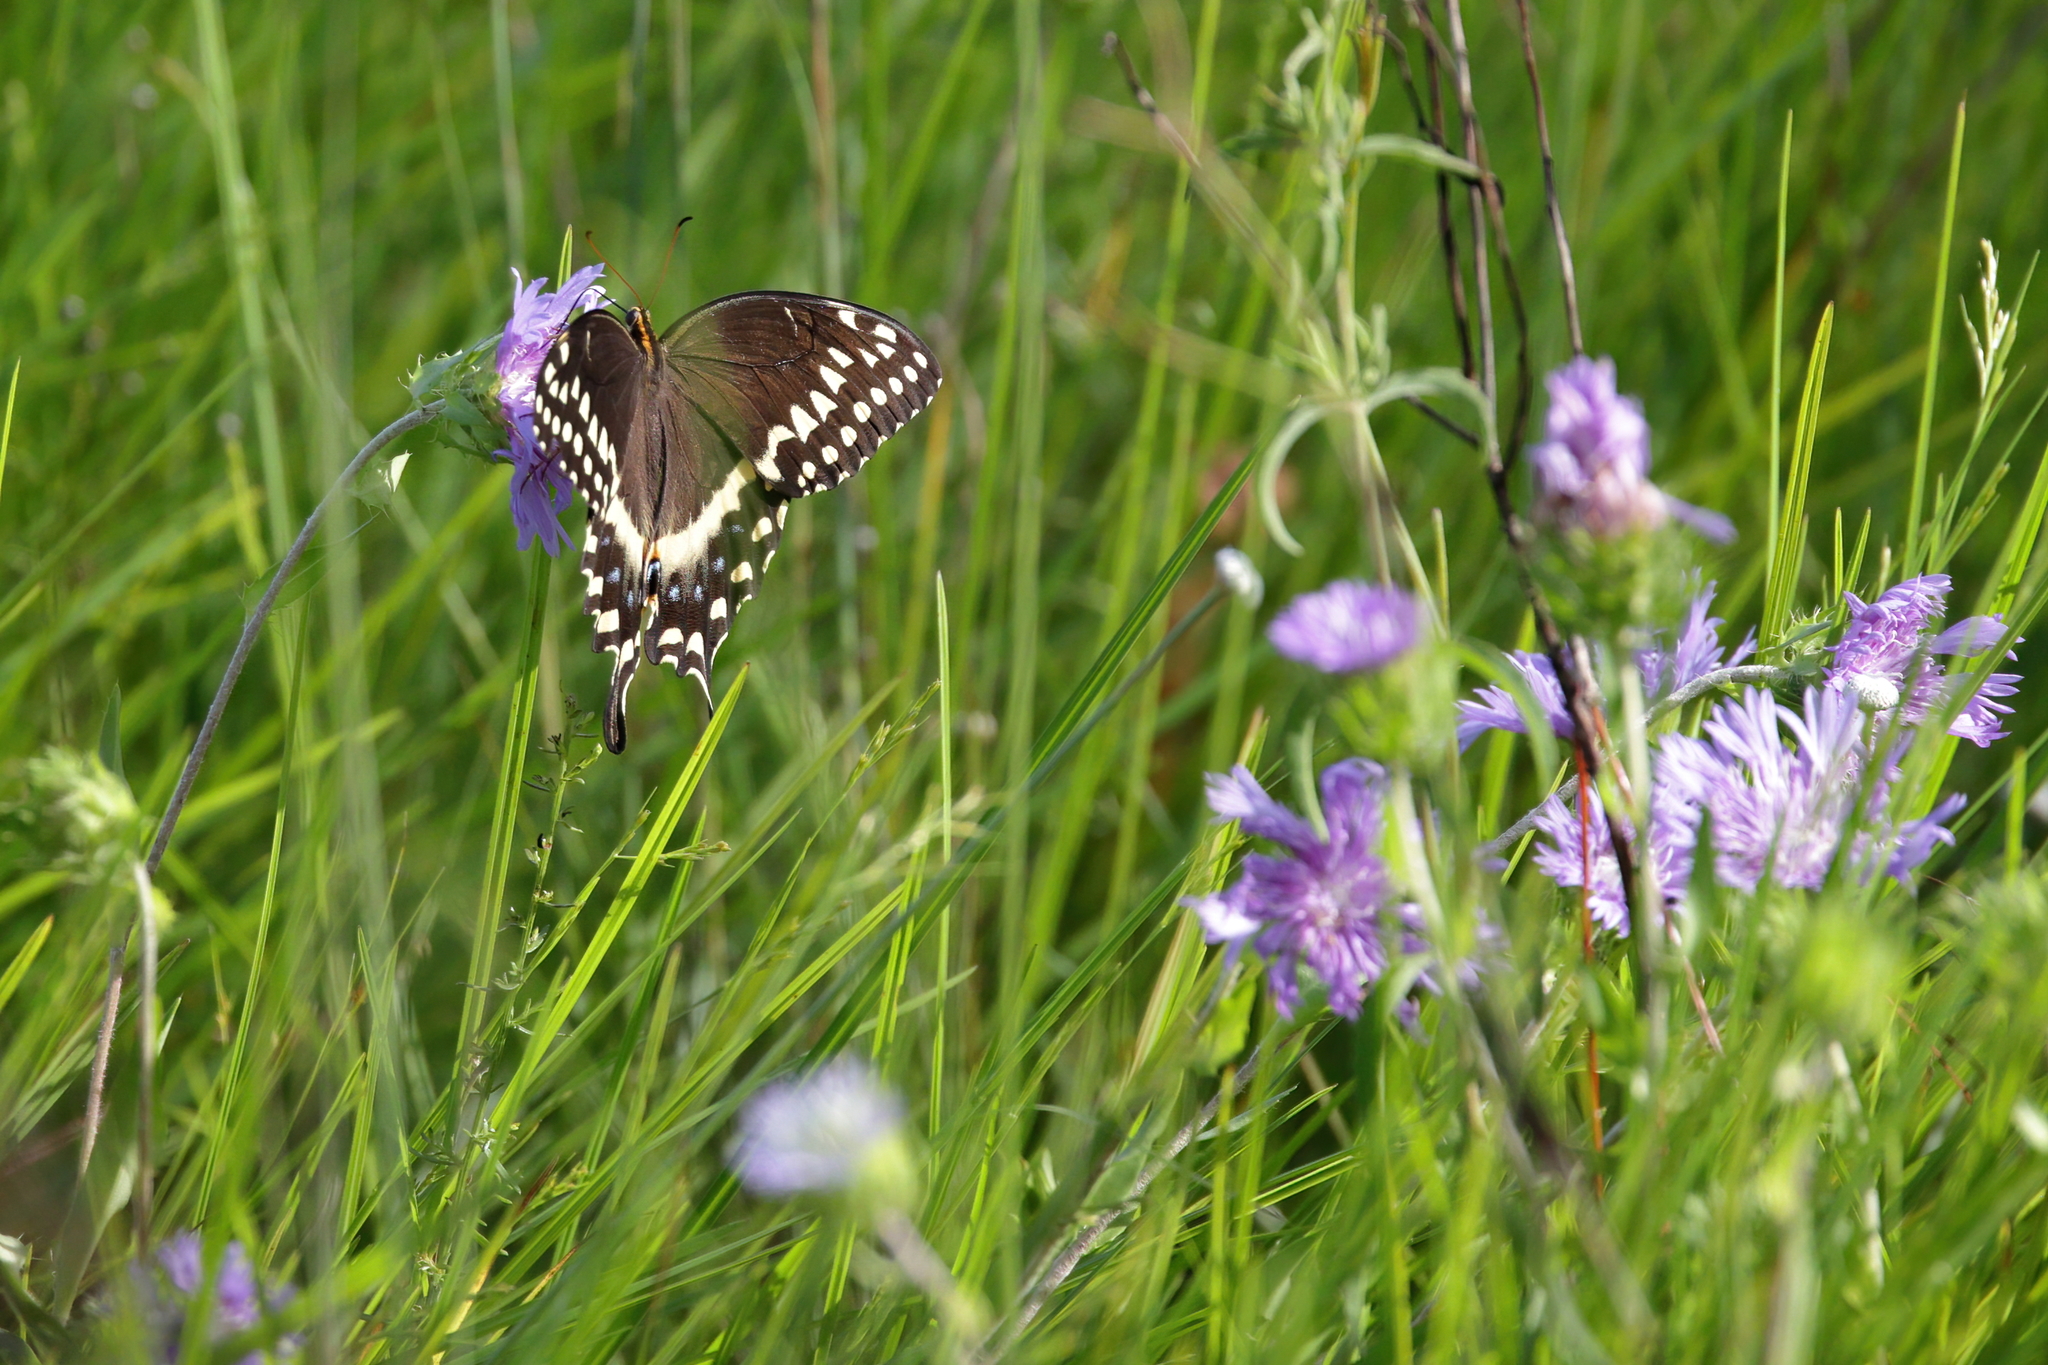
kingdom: Animalia
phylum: Arthropoda
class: Insecta
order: Lepidoptera
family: Papilionidae
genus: Papilio
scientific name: Papilio palamedes
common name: Palamedes swallowtail
